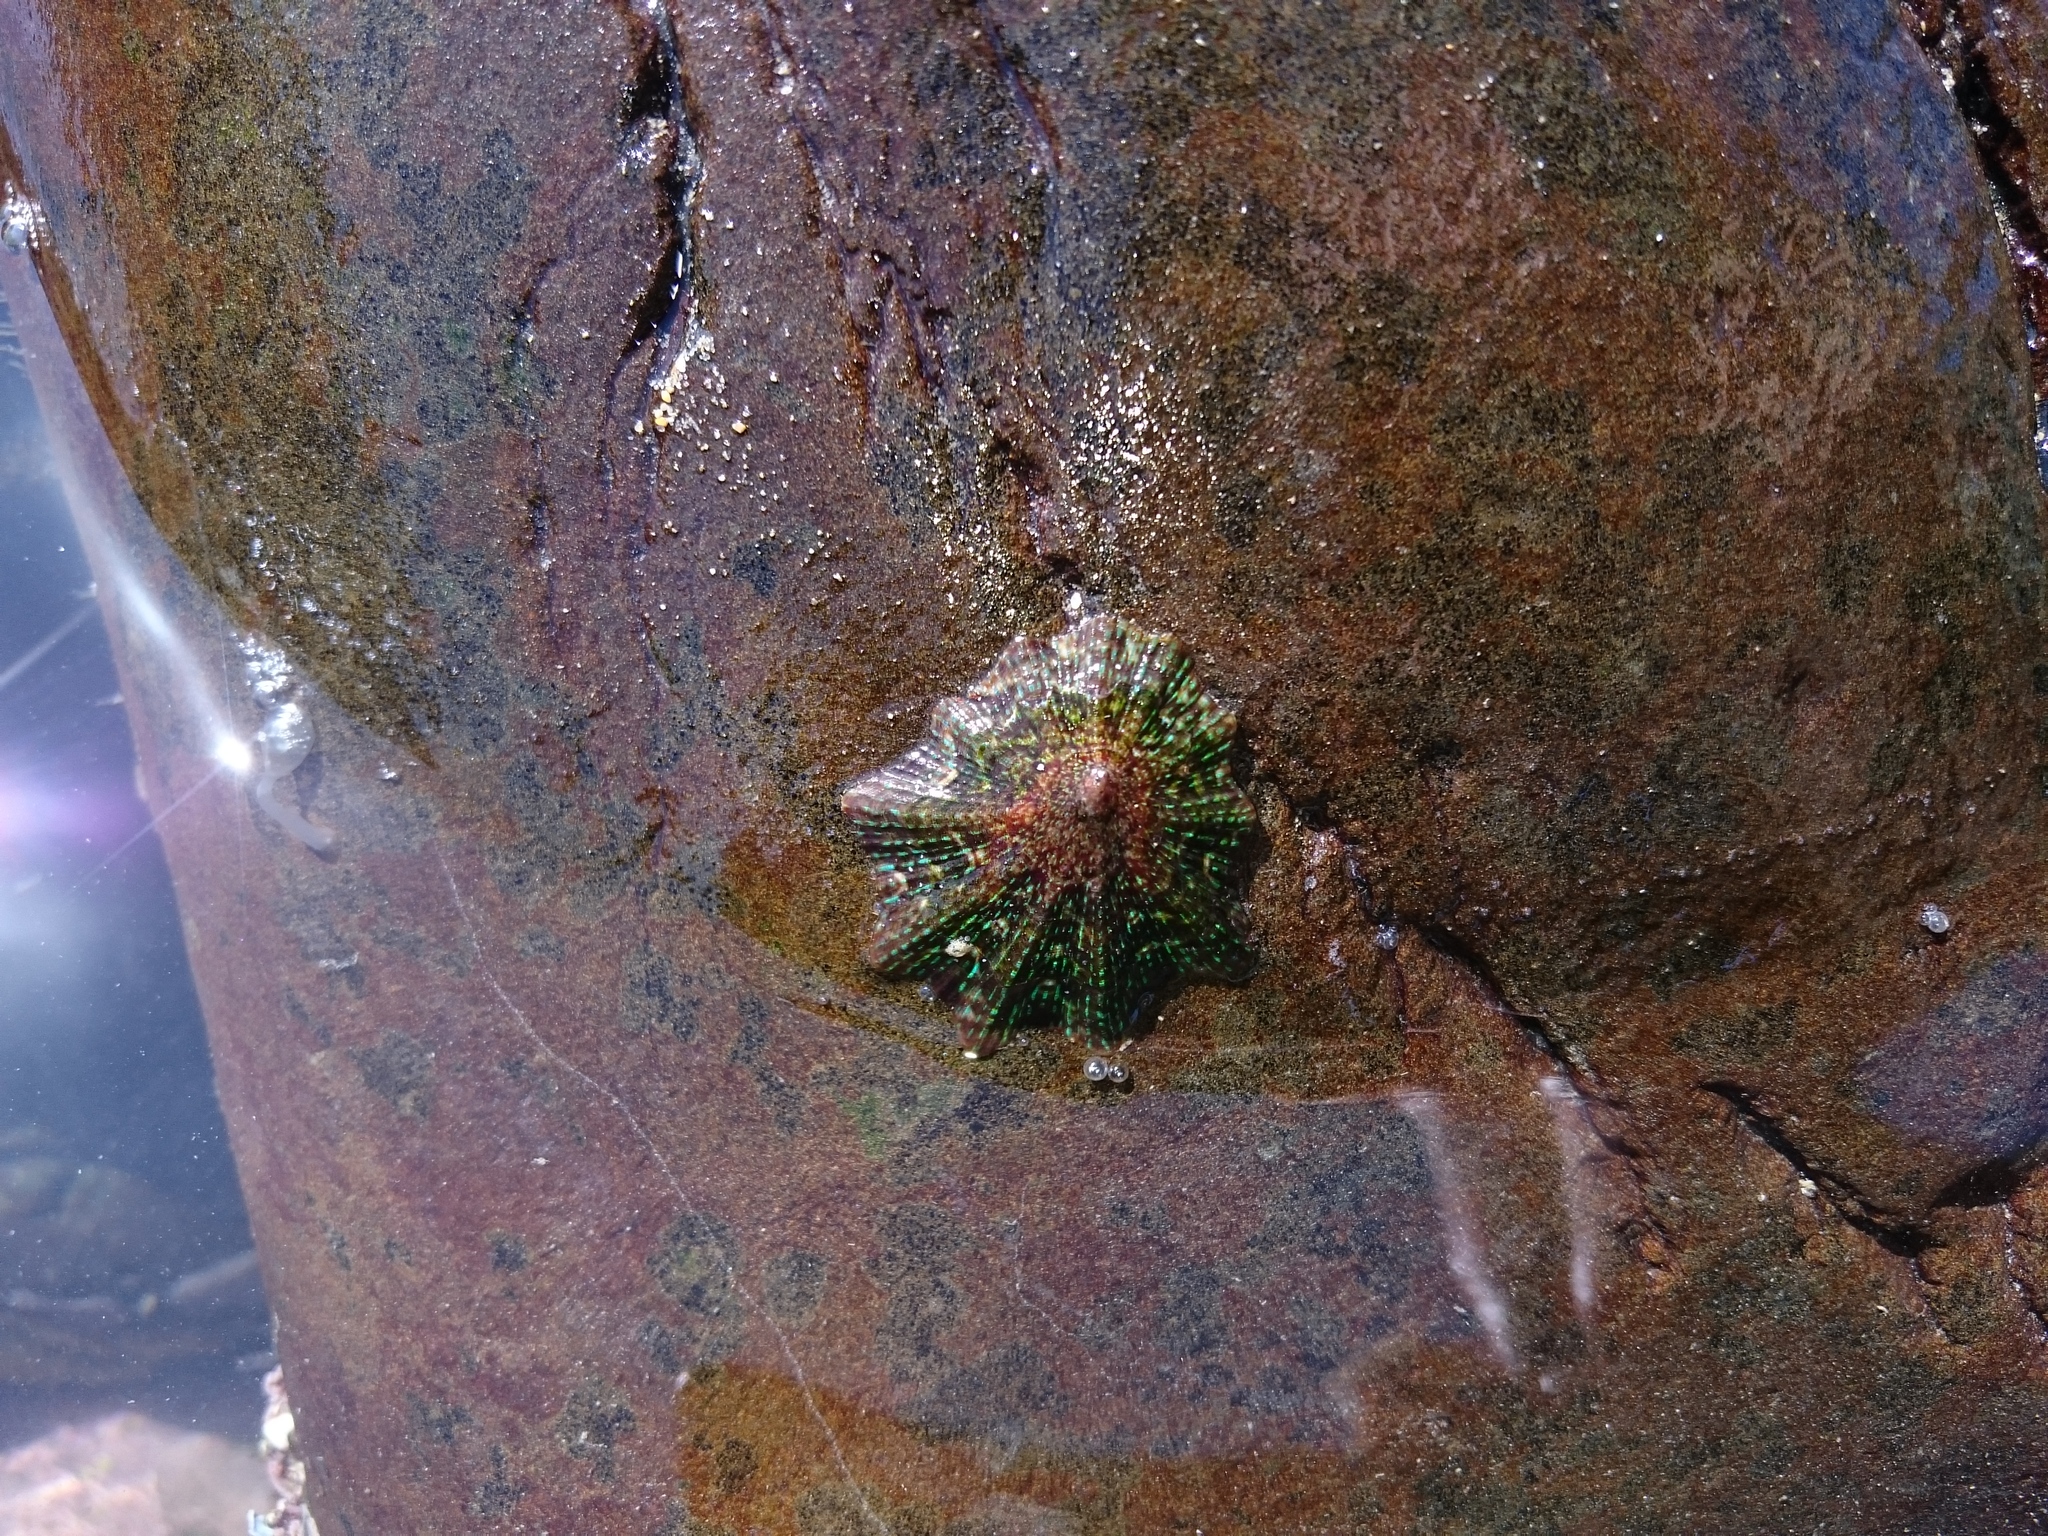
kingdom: Animalia
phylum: Mollusca
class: Gastropoda
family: Patellidae
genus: Cymbula
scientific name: Cymbula granatina
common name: Granite limpet
